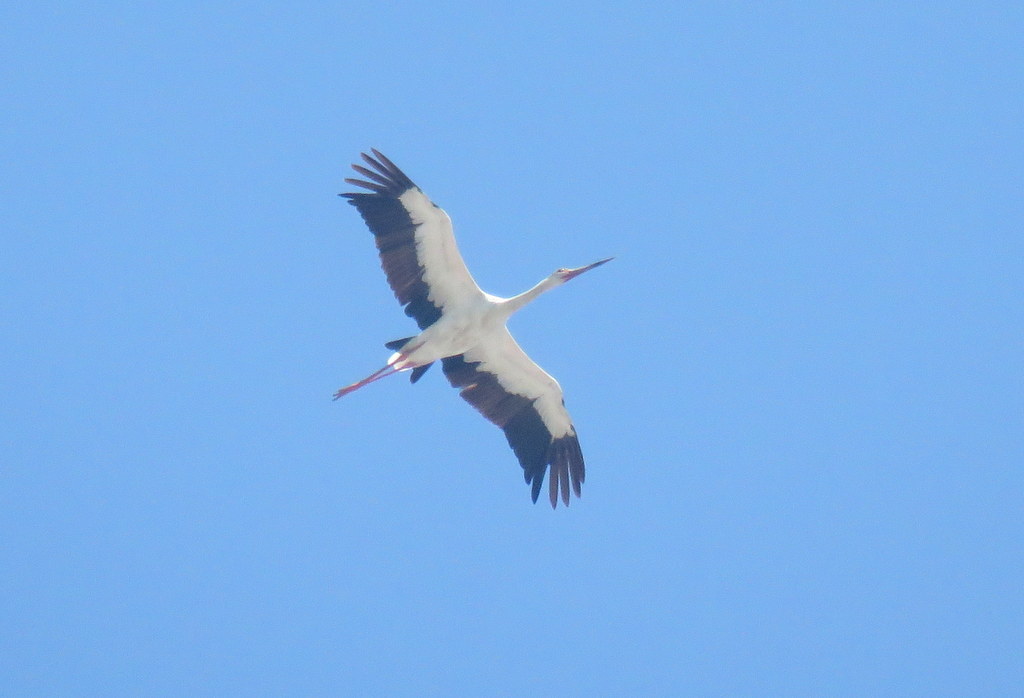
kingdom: Animalia
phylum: Chordata
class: Aves
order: Ciconiiformes
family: Ciconiidae
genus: Ciconia
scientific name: Ciconia maguari
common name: Maguari stork
